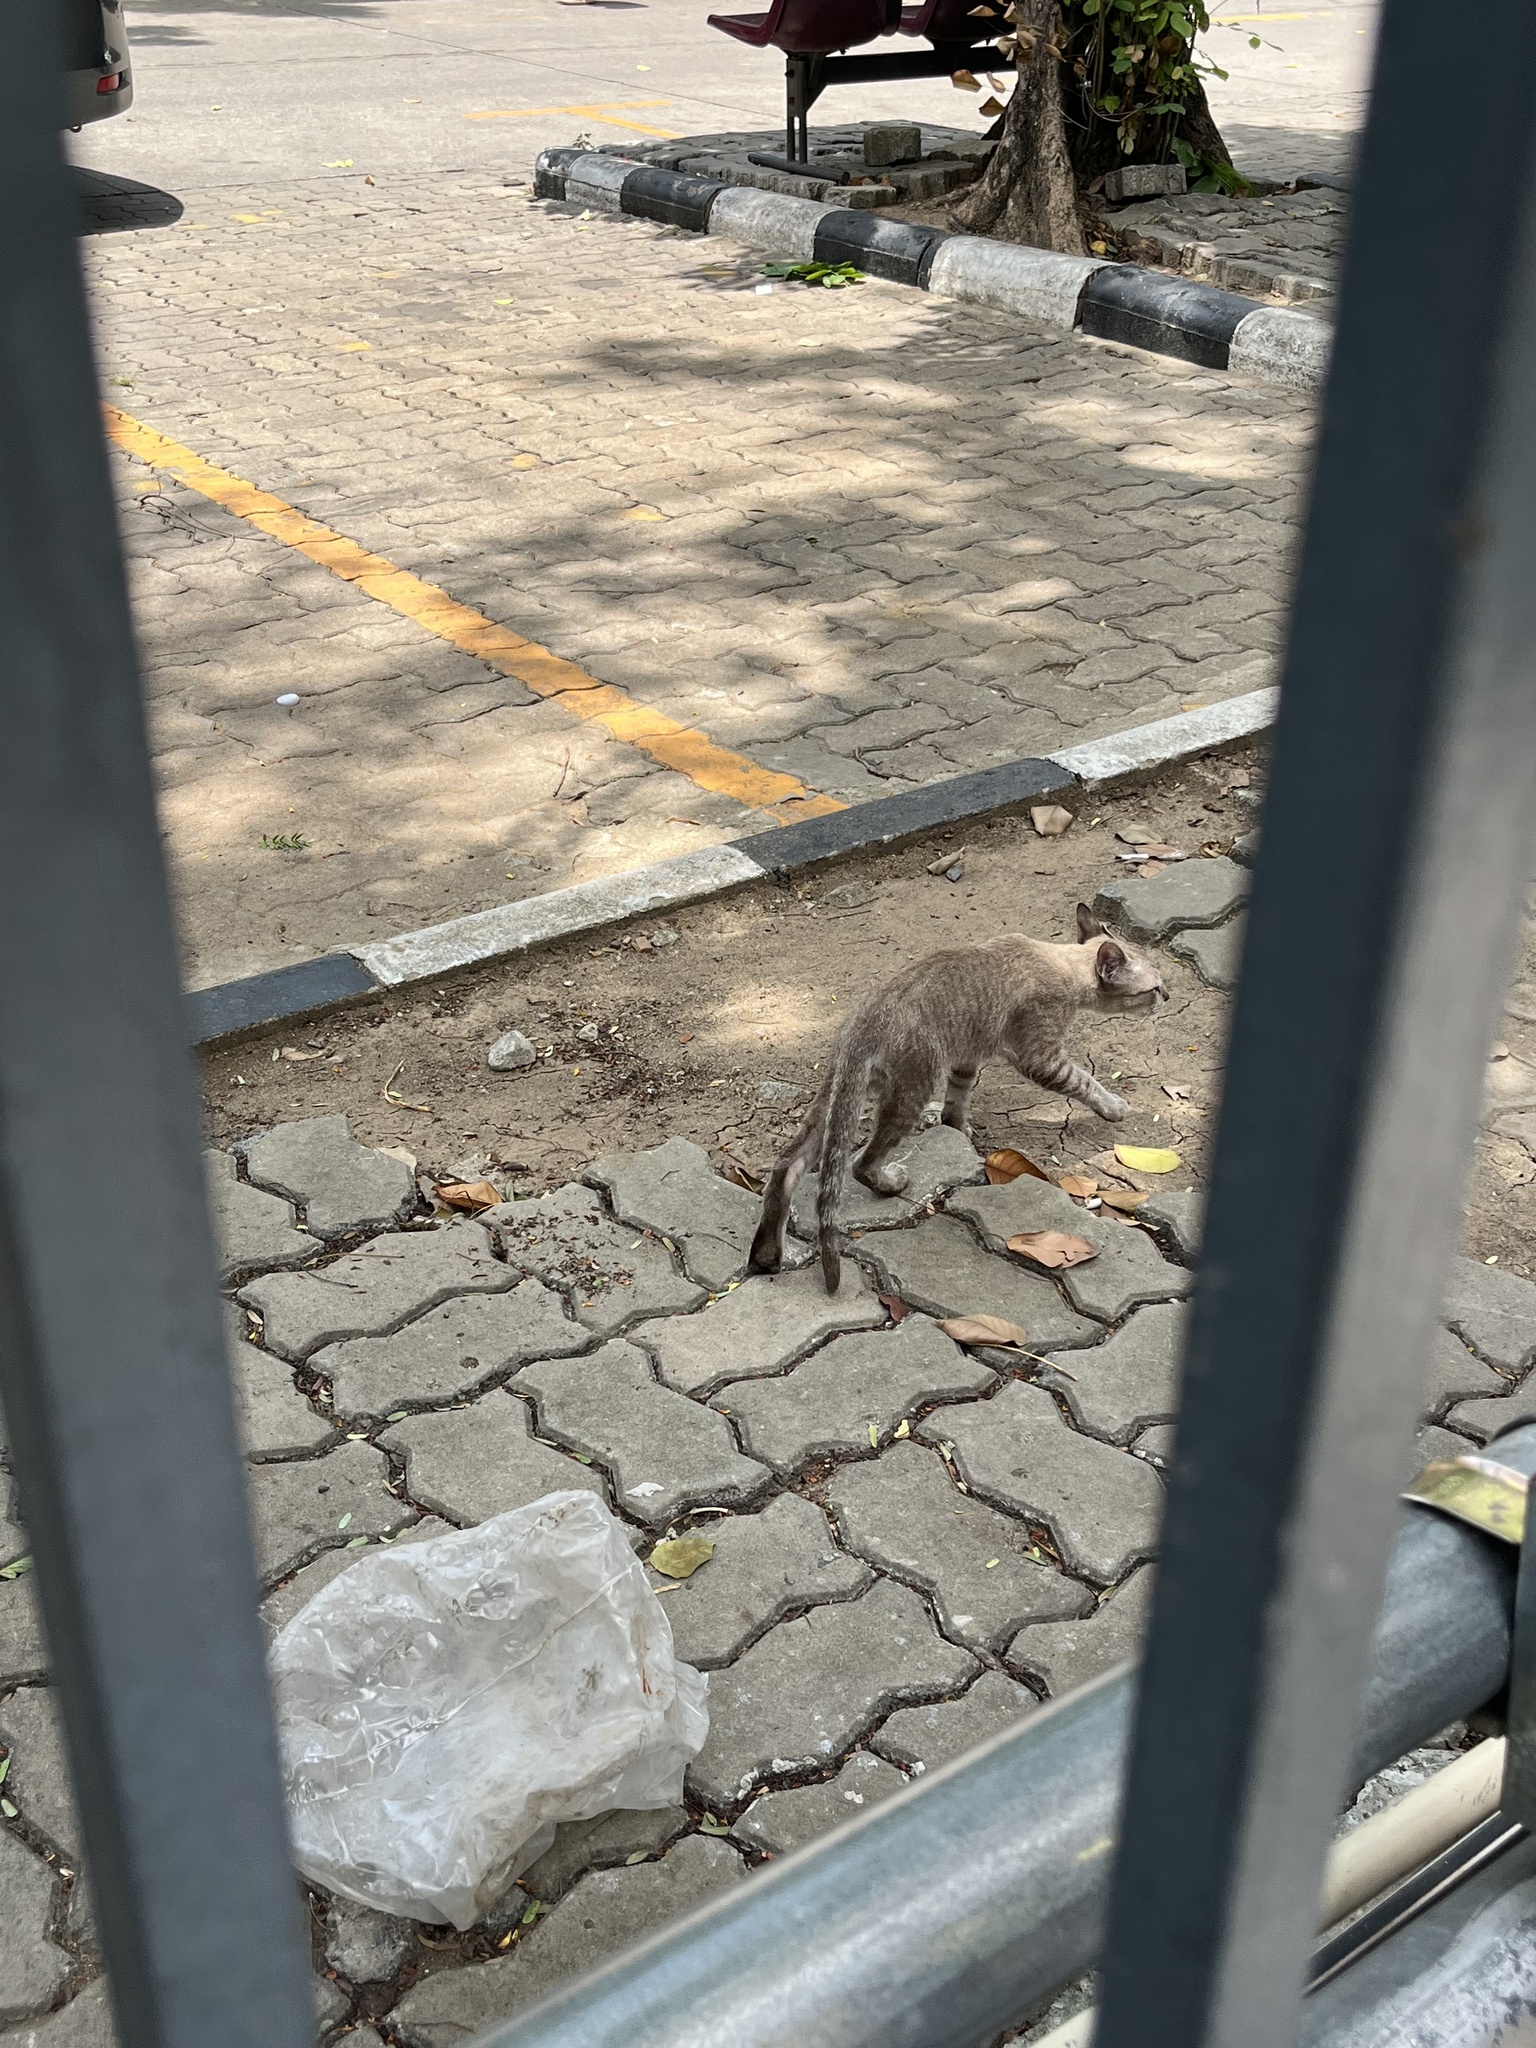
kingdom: Animalia
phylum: Chordata
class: Mammalia
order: Carnivora
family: Felidae
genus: Felis
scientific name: Felis catus
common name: Domestic cat
